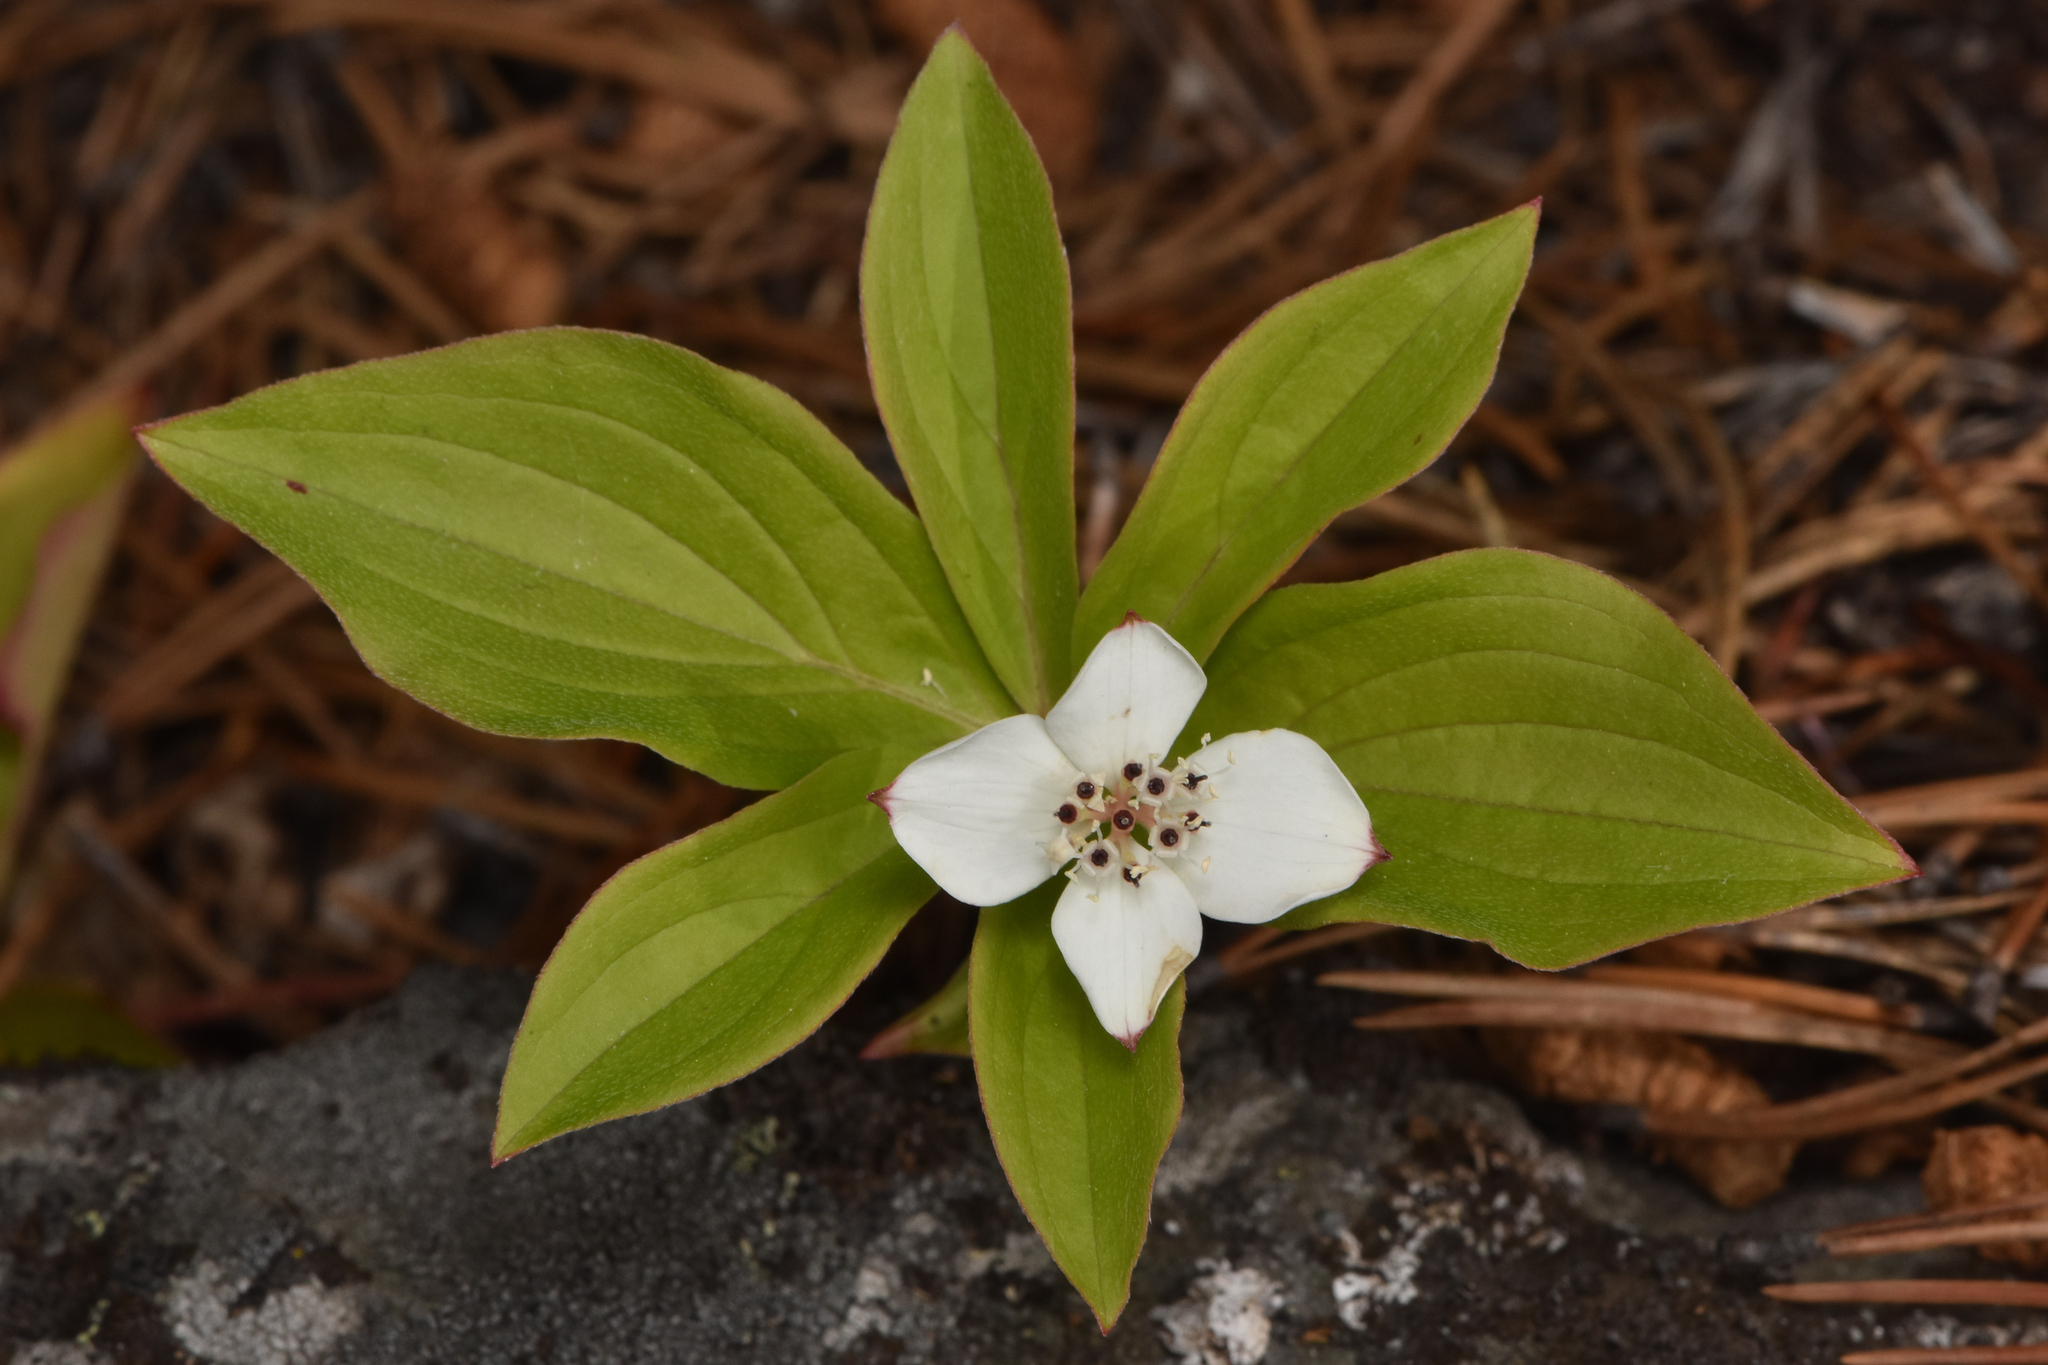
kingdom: Plantae
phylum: Tracheophyta
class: Magnoliopsida
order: Cornales
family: Cornaceae
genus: Cornus
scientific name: Cornus canadensis
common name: Creeping dogwood
